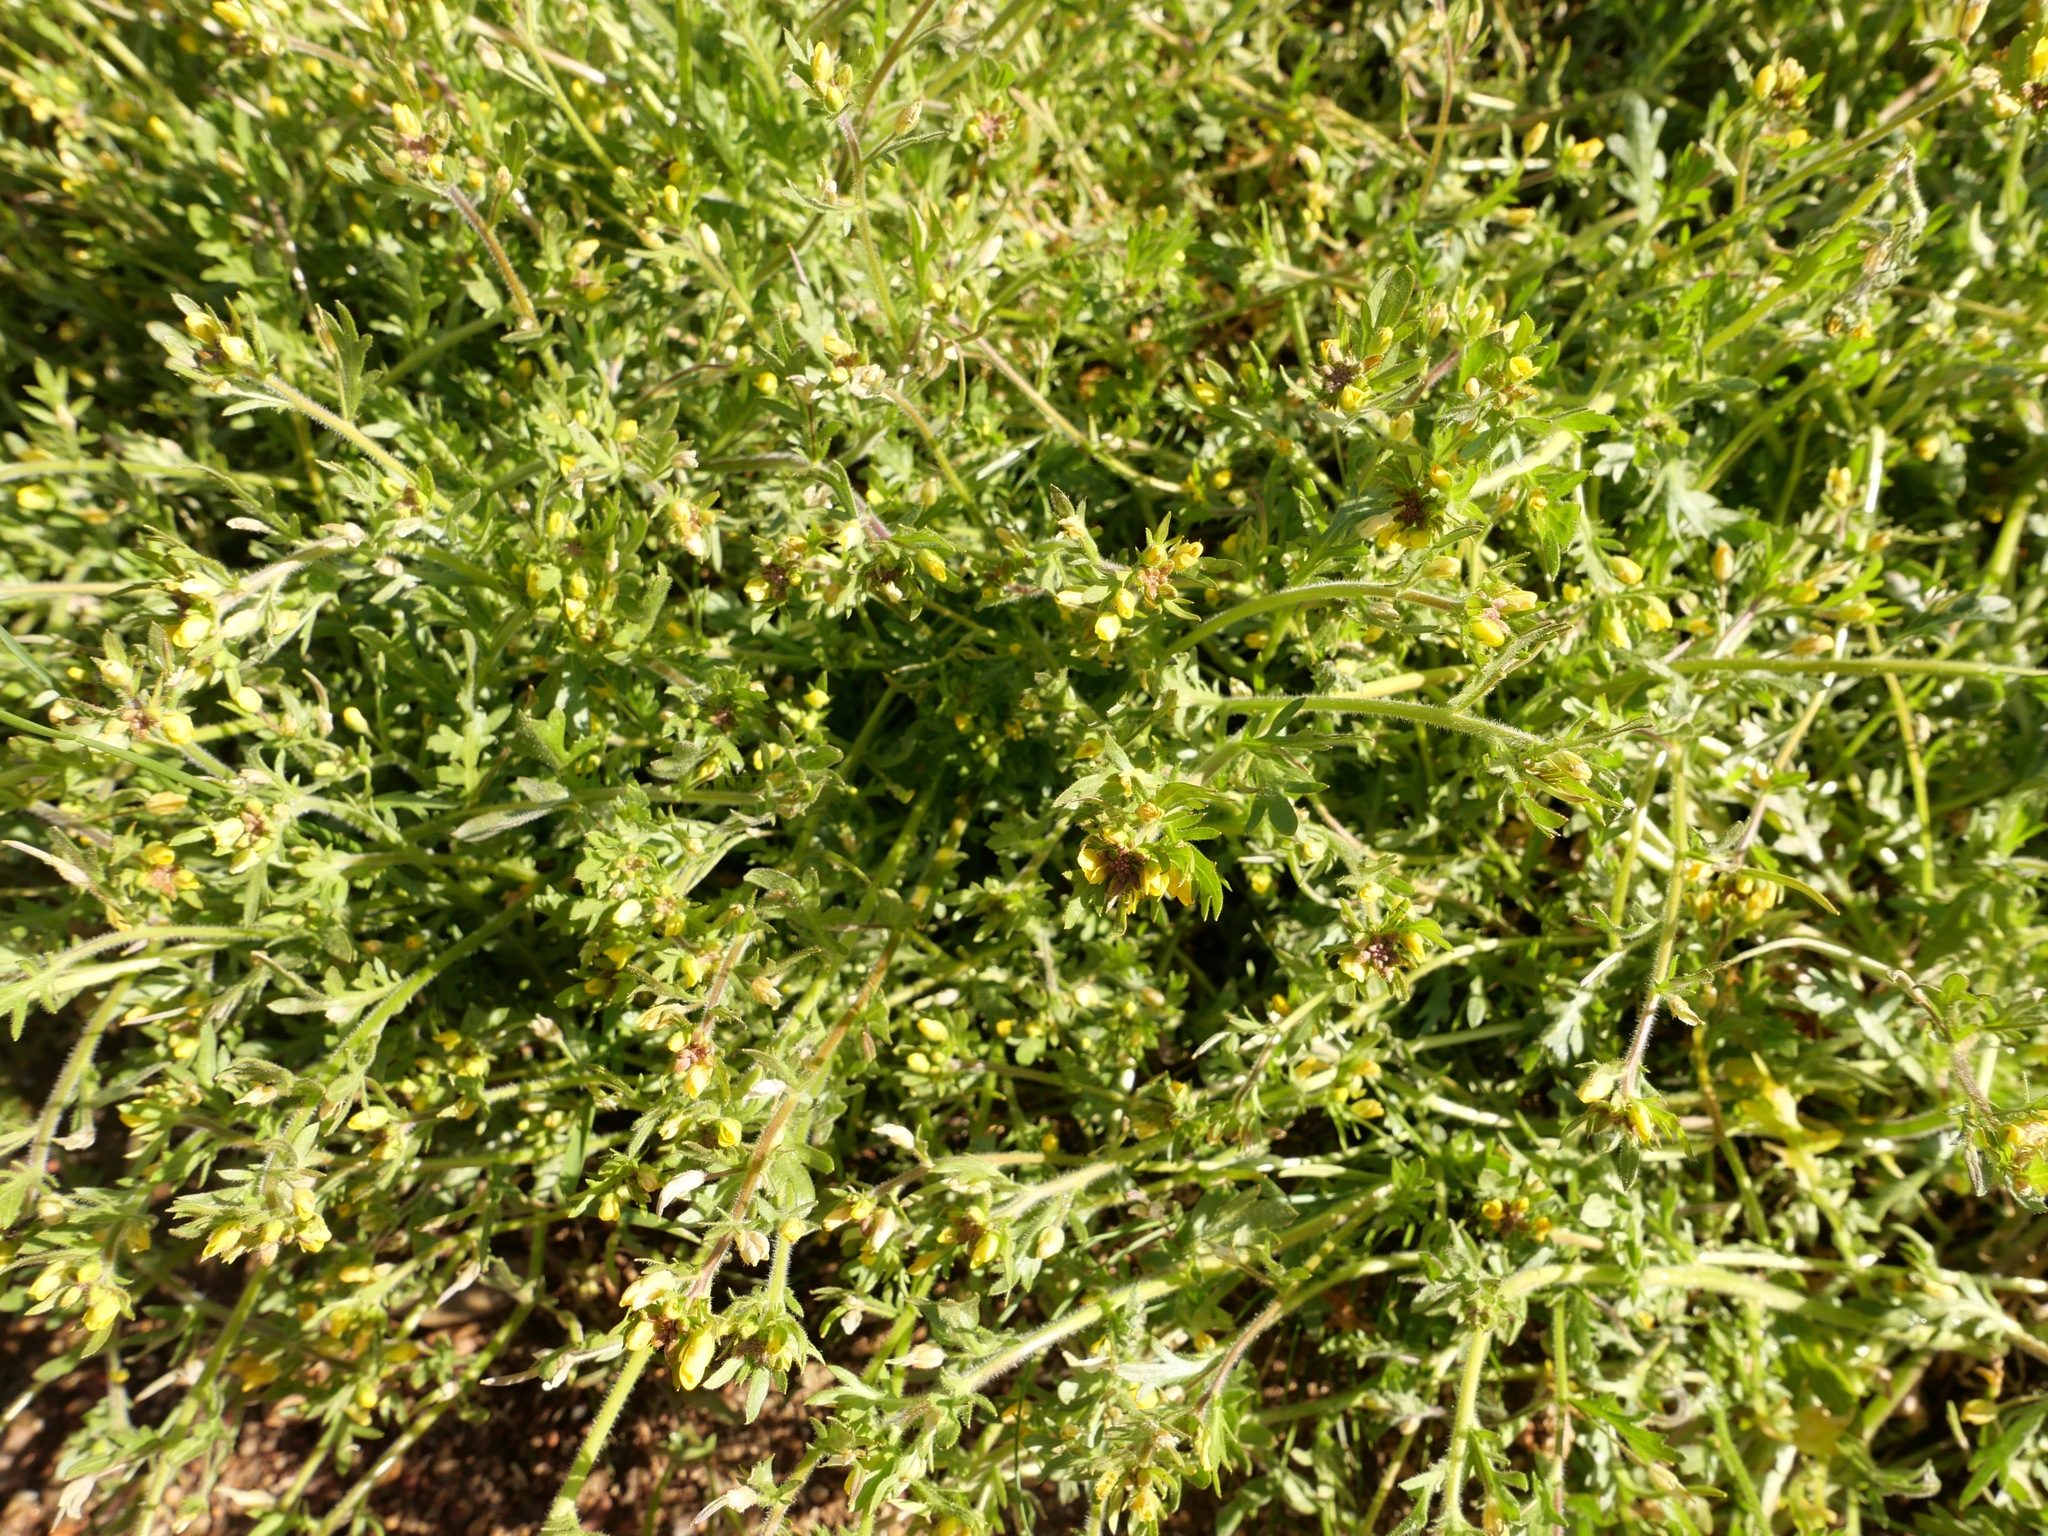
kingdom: Plantae
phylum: Tracheophyta
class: Magnoliopsida
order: Brassicales
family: Brassicaceae
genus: Tropidocarpum
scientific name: Tropidocarpum gracile
